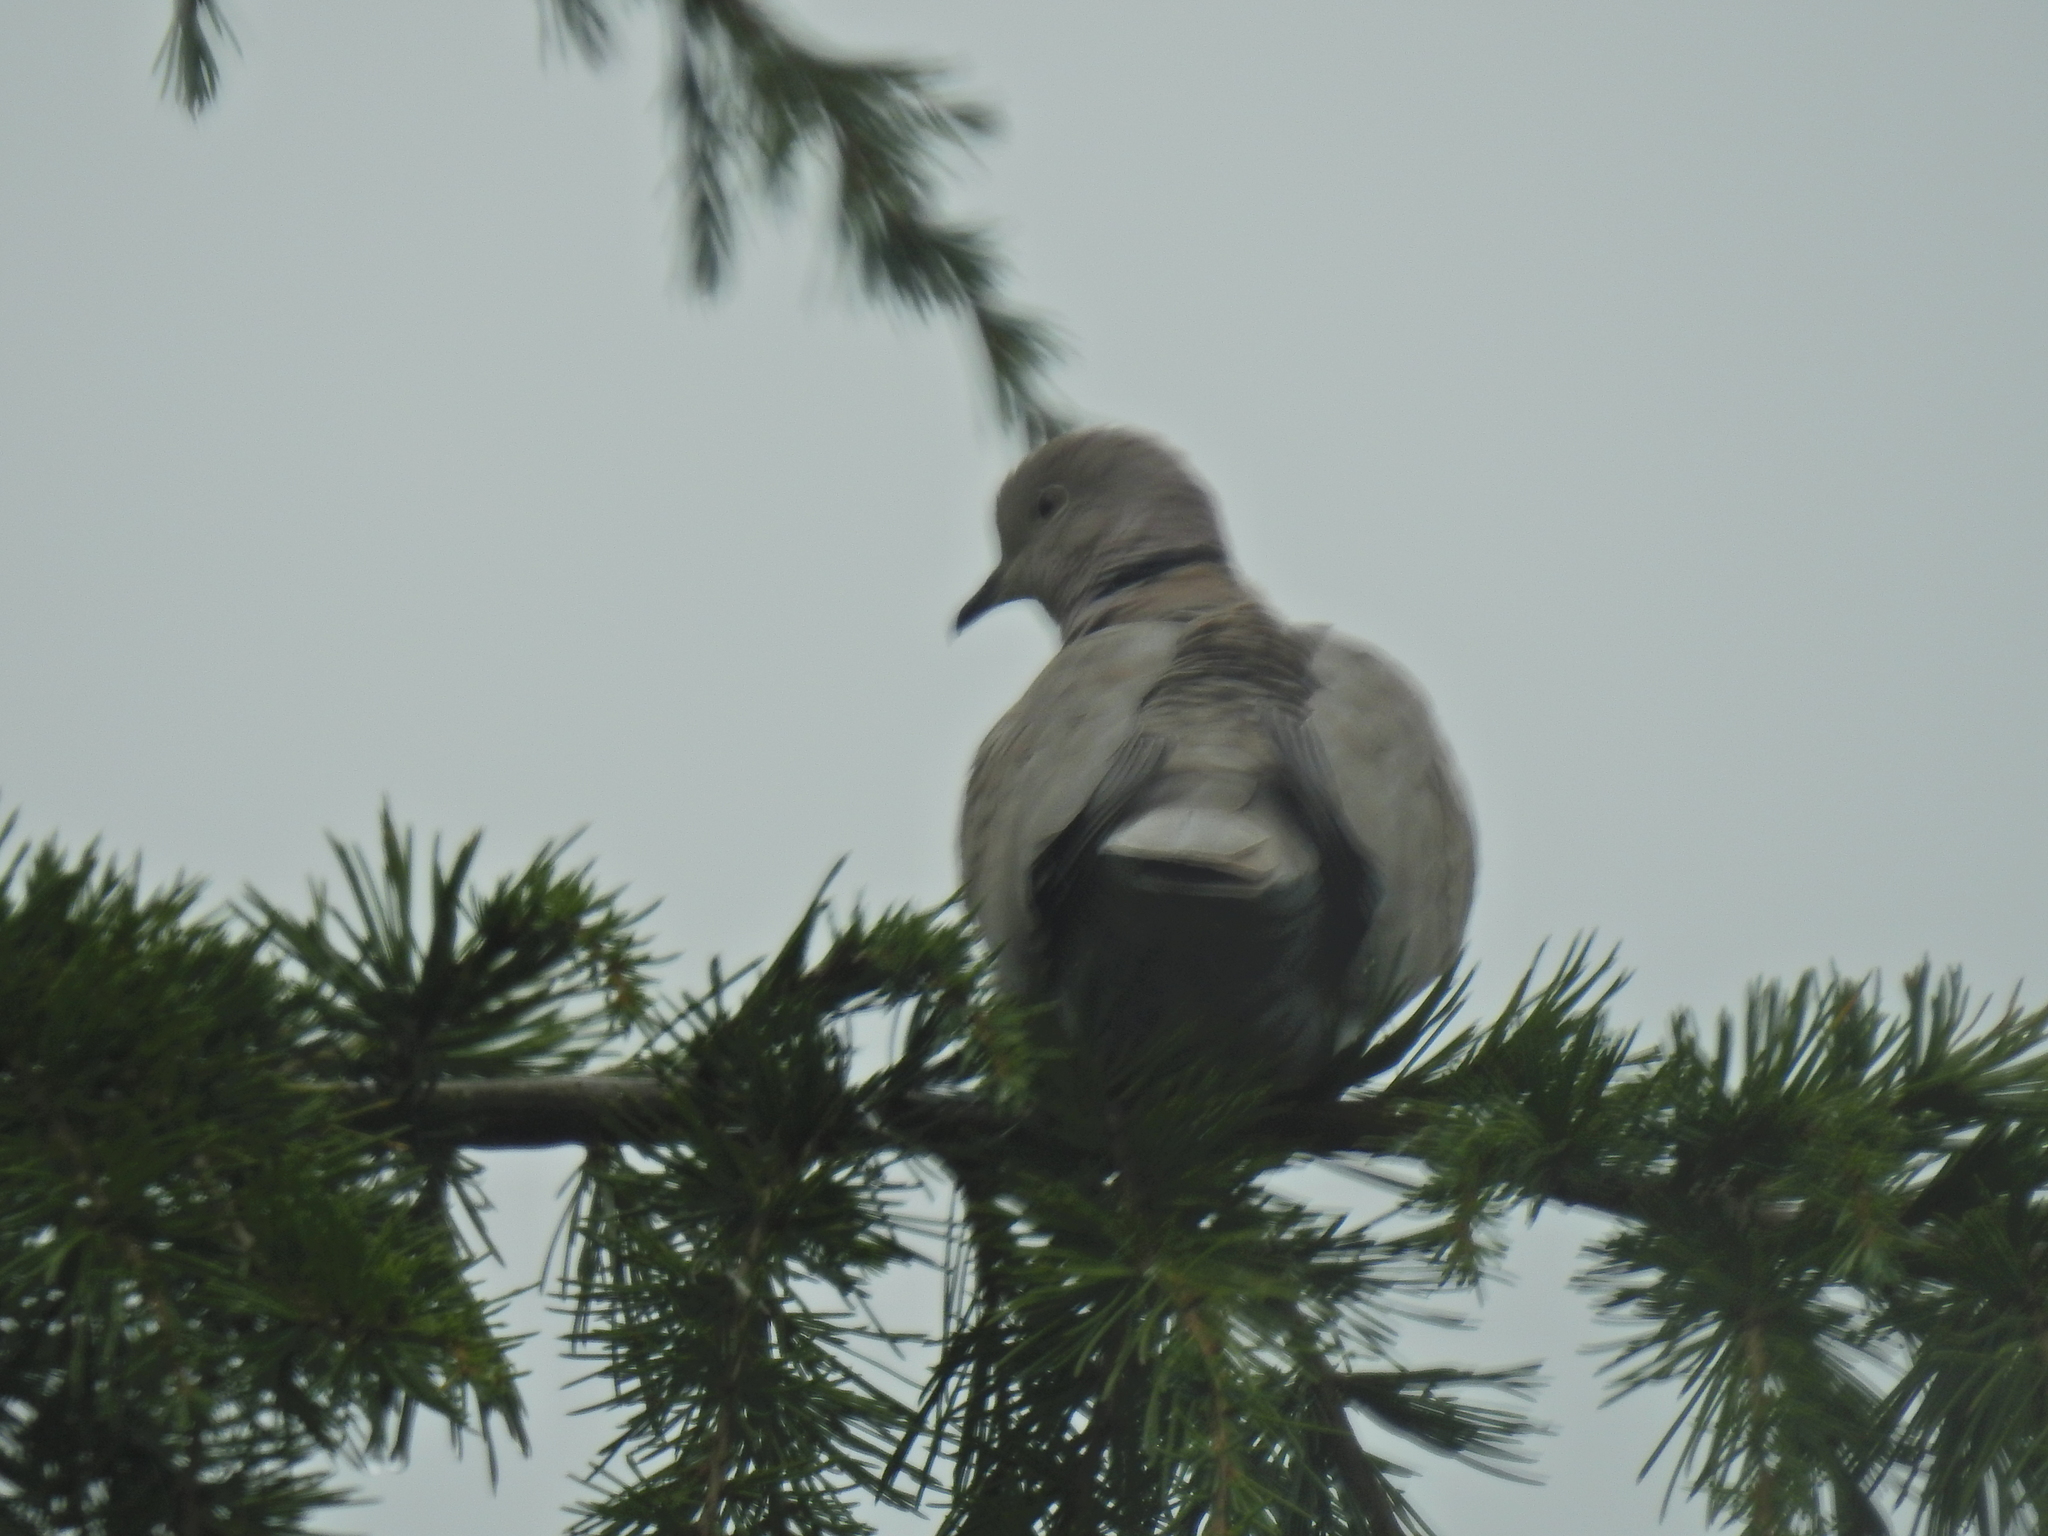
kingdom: Animalia
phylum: Chordata
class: Aves
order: Columbiformes
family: Columbidae
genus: Streptopelia
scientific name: Streptopelia decaocto
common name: Eurasian collared dove
